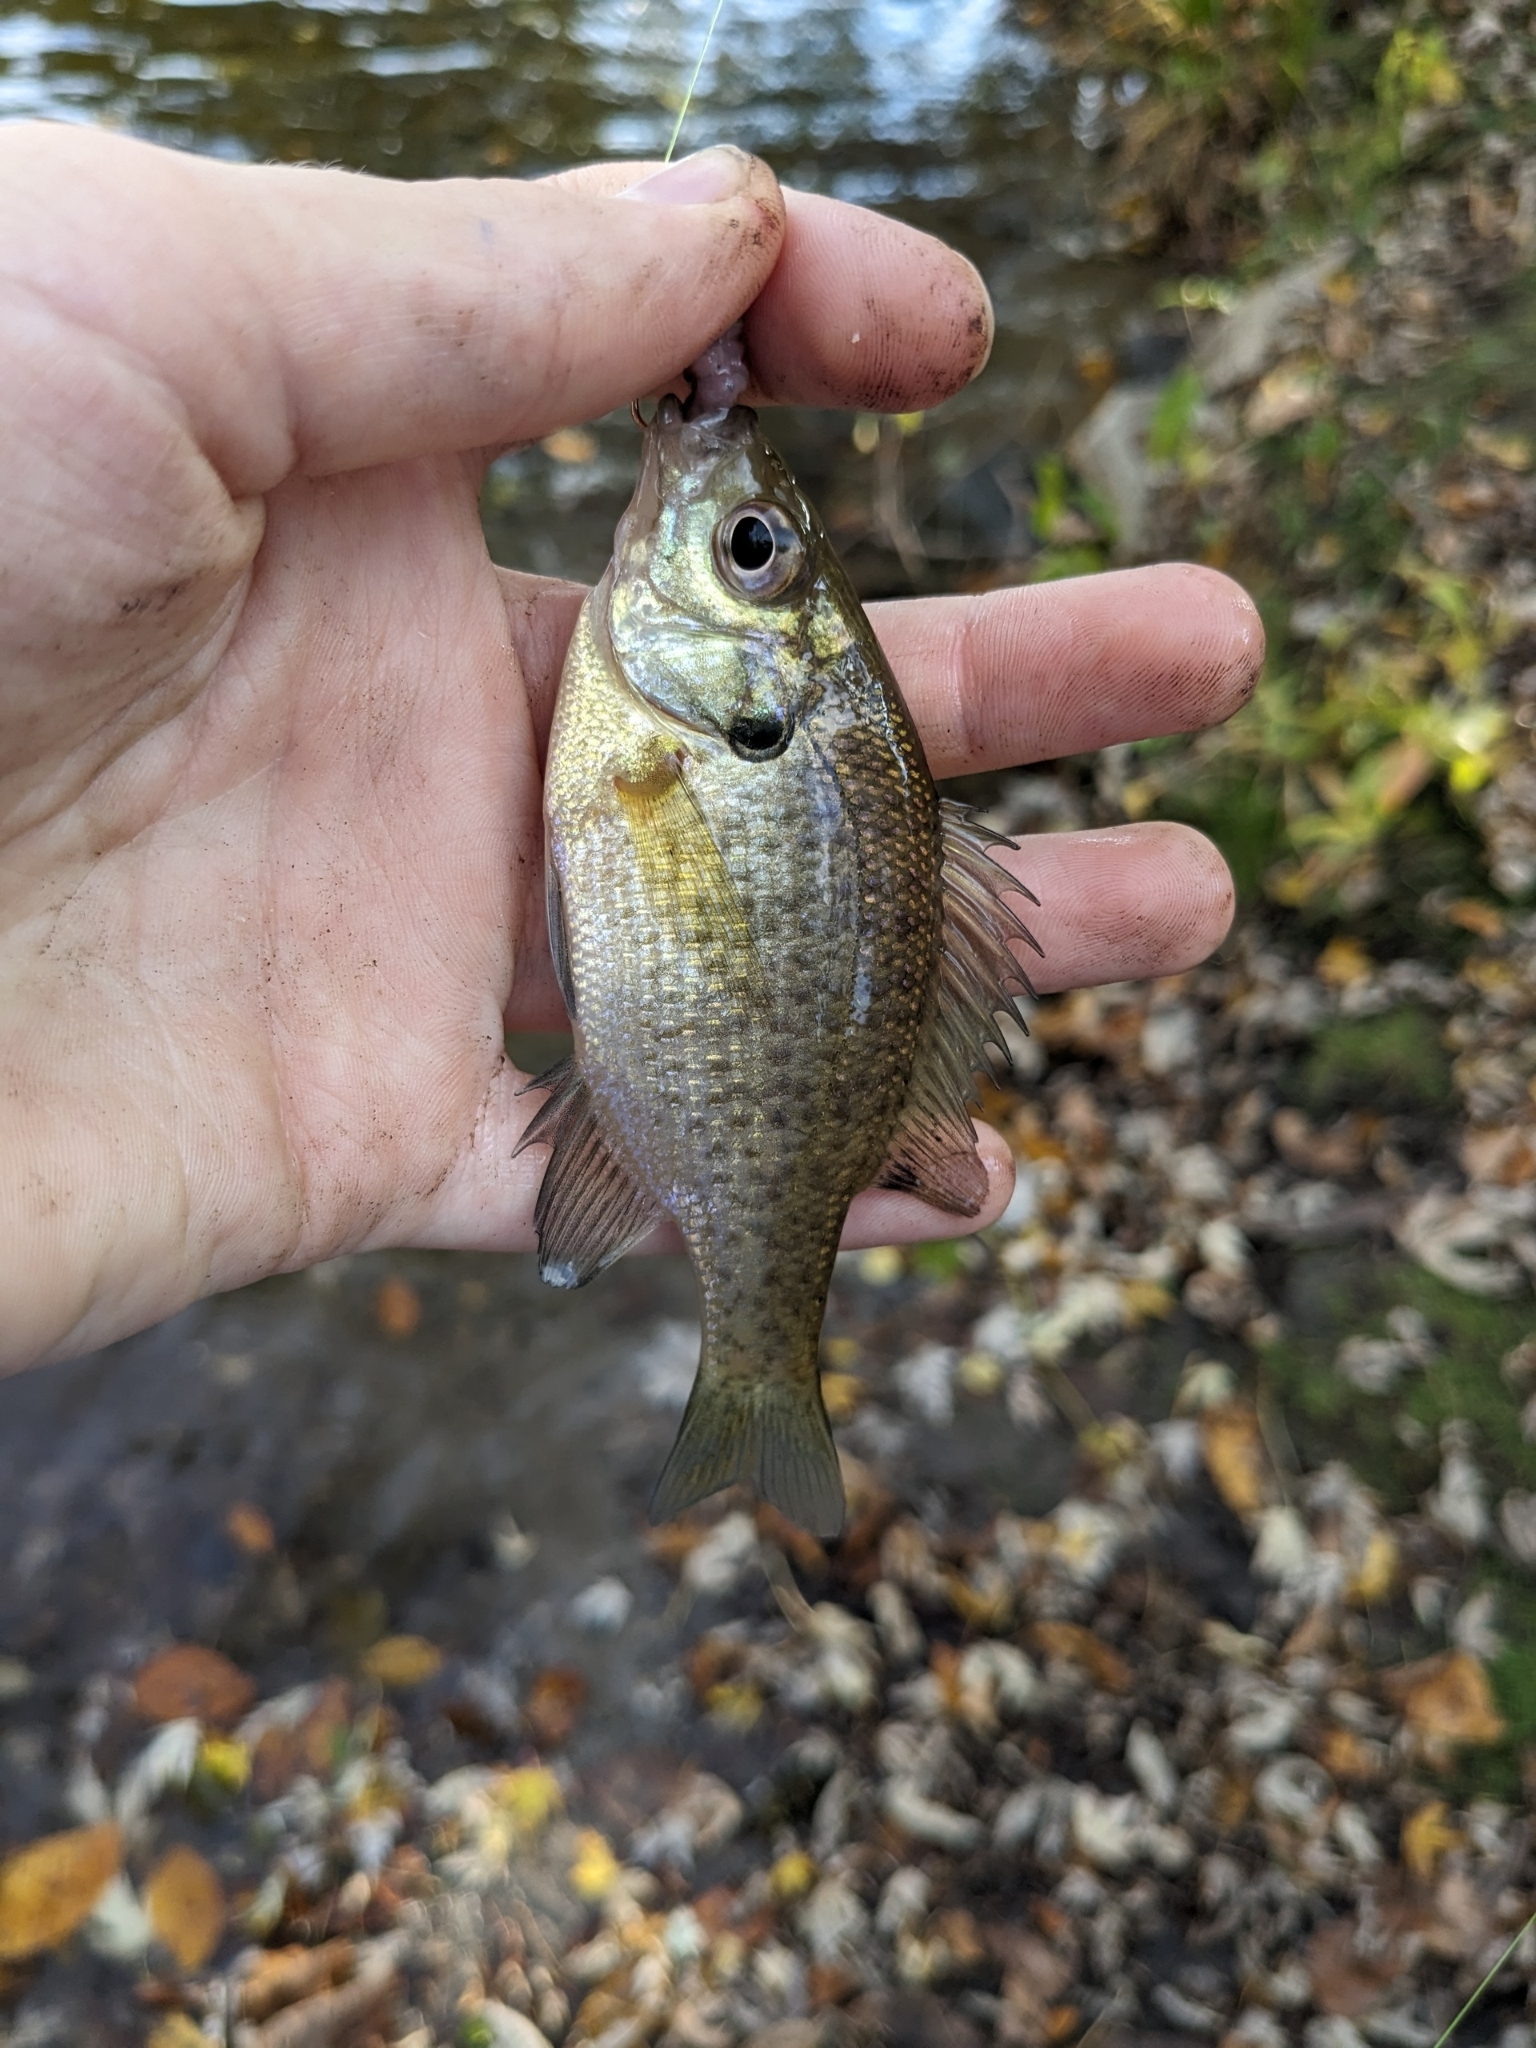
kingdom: Animalia
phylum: Chordata
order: Perciformes
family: Centrarchidae
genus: Lepomis
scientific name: Lepomis macrochirus
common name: Bluegill
